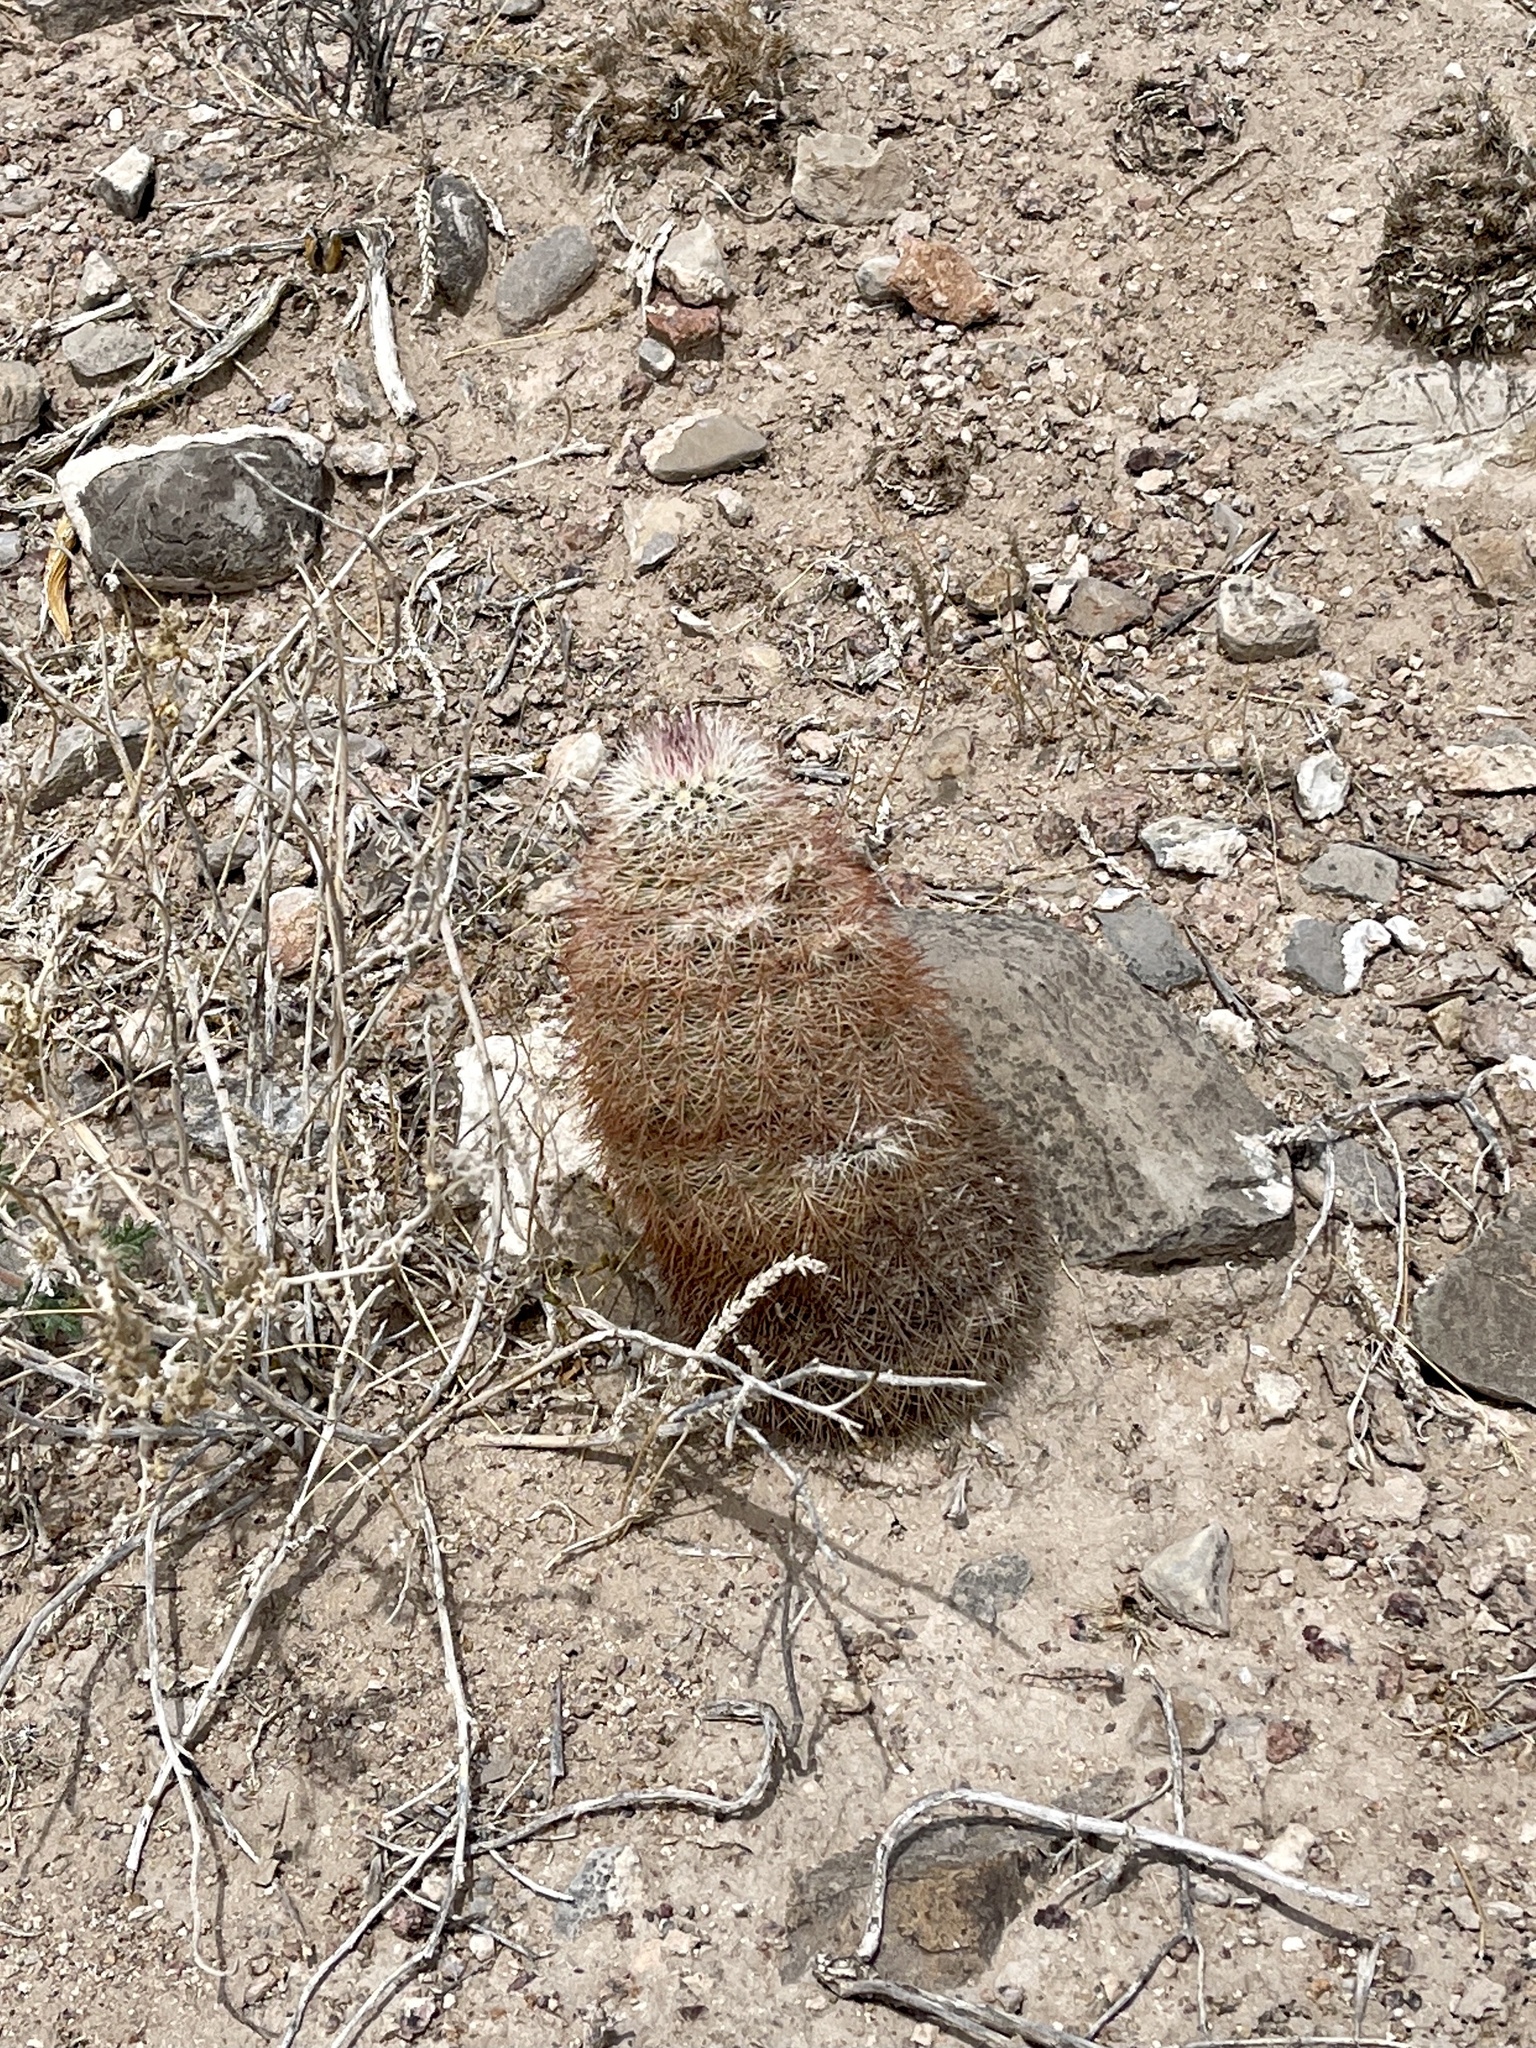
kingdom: Plantae
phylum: Tracheophyta
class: Magnoliopsida
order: Caryophyllales
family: Cactaceae
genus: Echinocereus
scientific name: Echinocereus dasyacanthus
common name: Spiny hedgehog cactus
